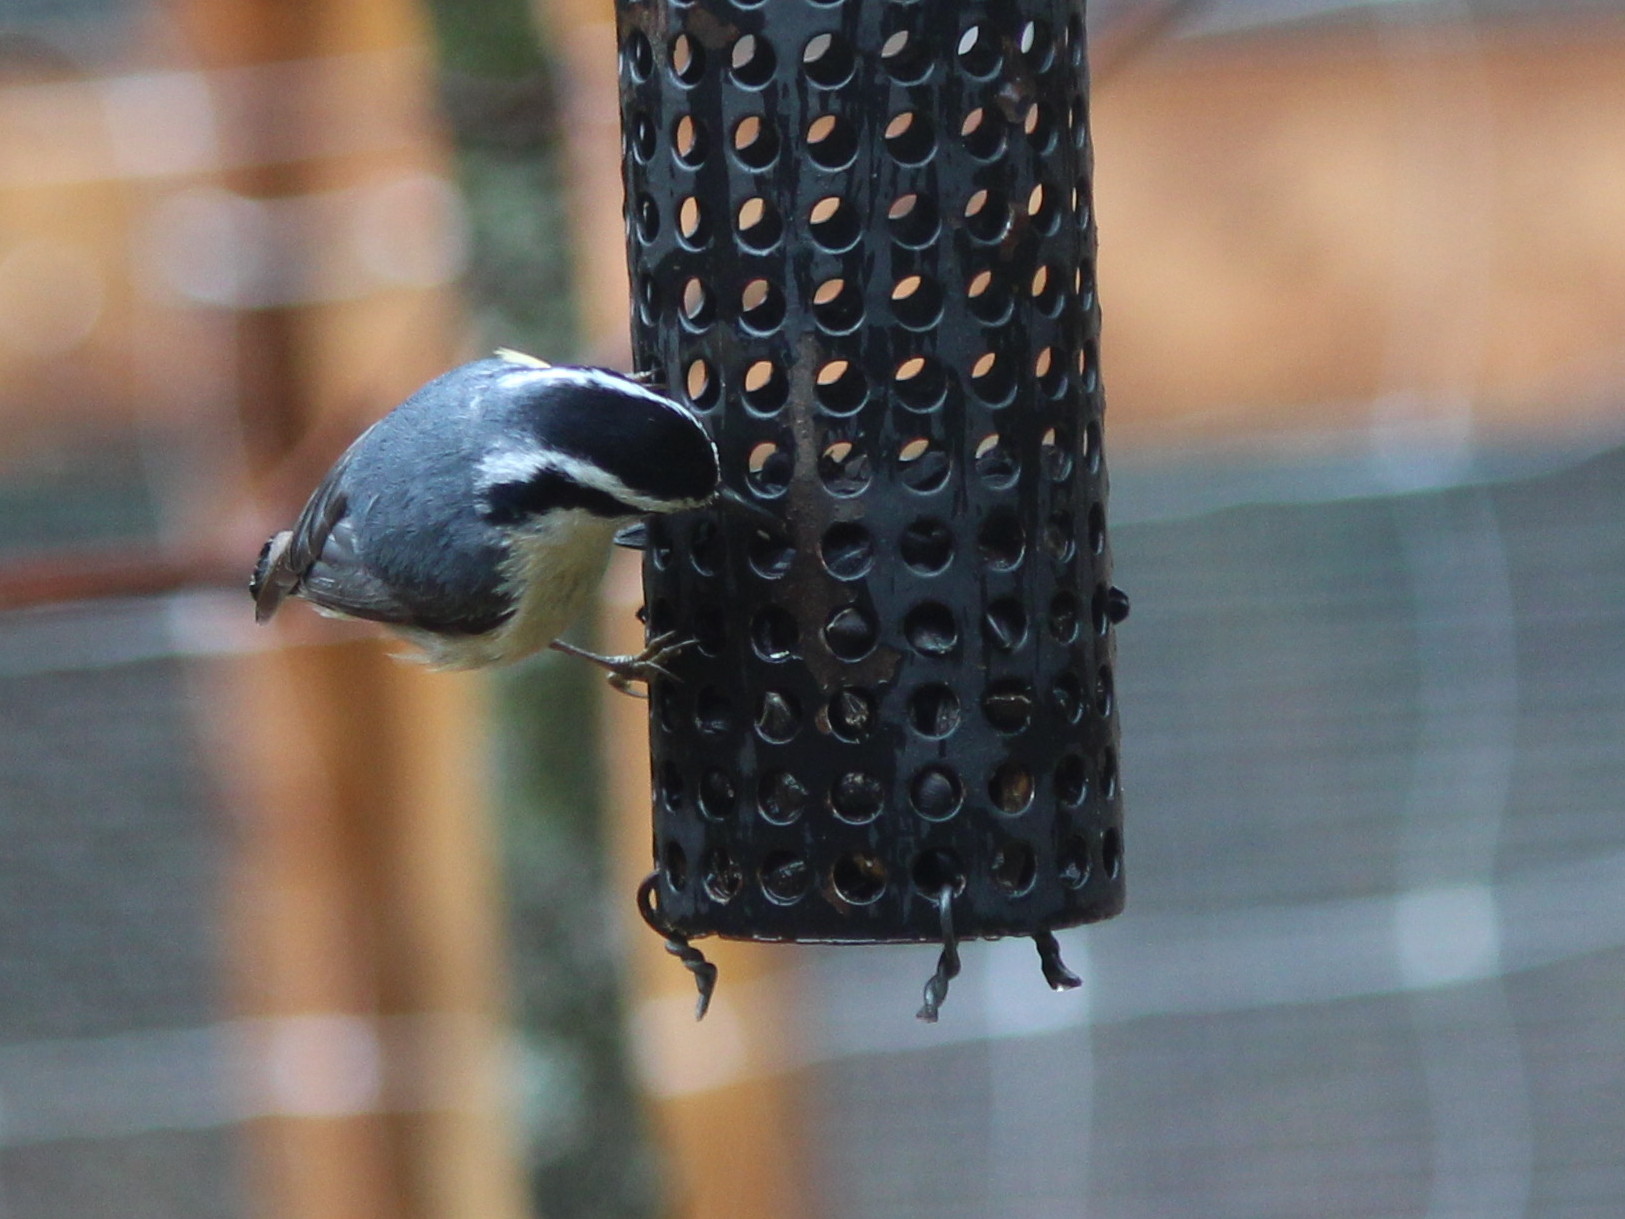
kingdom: Animalia
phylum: Chordata
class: Aves
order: Passeriformes
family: Sittidae
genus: Sitta
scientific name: Sitta canadensis
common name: Red-breasted nuthatch
